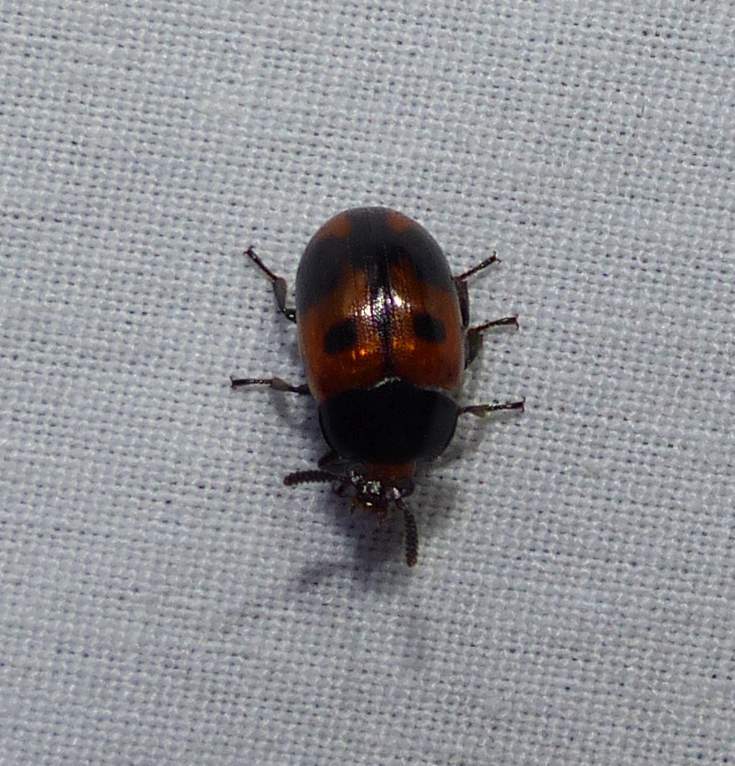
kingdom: Animalia
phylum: Arthropoda
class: Insecta
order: Coleoptera
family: Tenebrionidae
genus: Diaperis
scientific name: Diaperis maculata
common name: Darkling beetle
